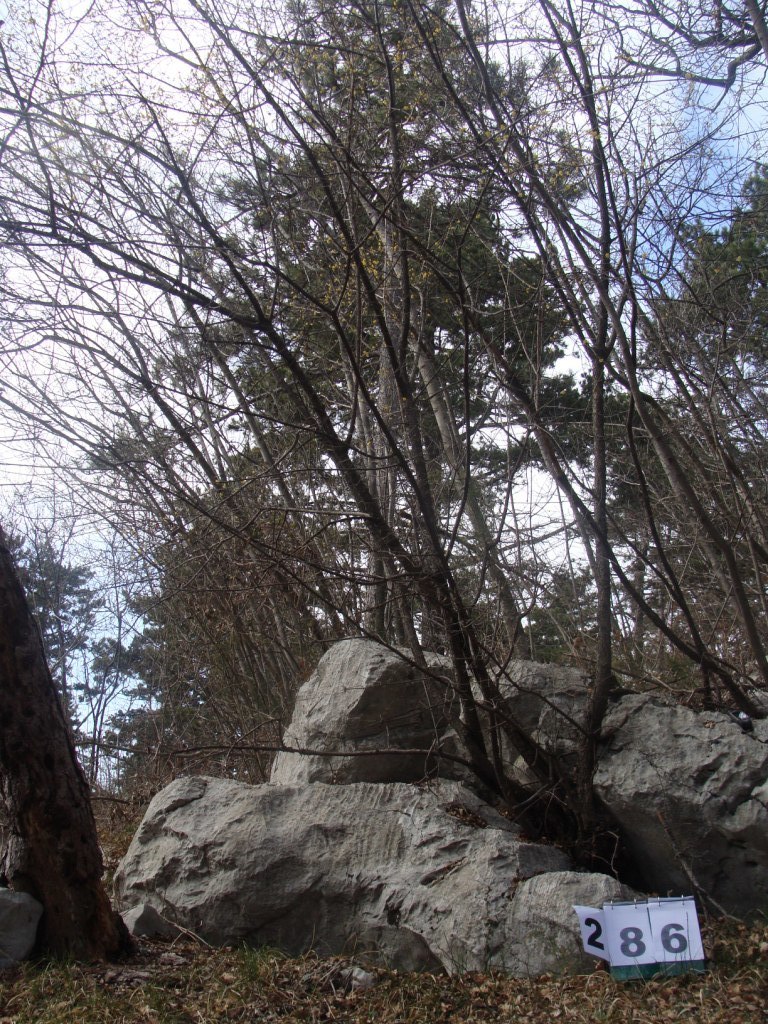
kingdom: Plantae
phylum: Tracheophyta
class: Magnoliopsida
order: Cornales
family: Cornaceae
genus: Cornus
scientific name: Cornus mas
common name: Cornelian-cherry
